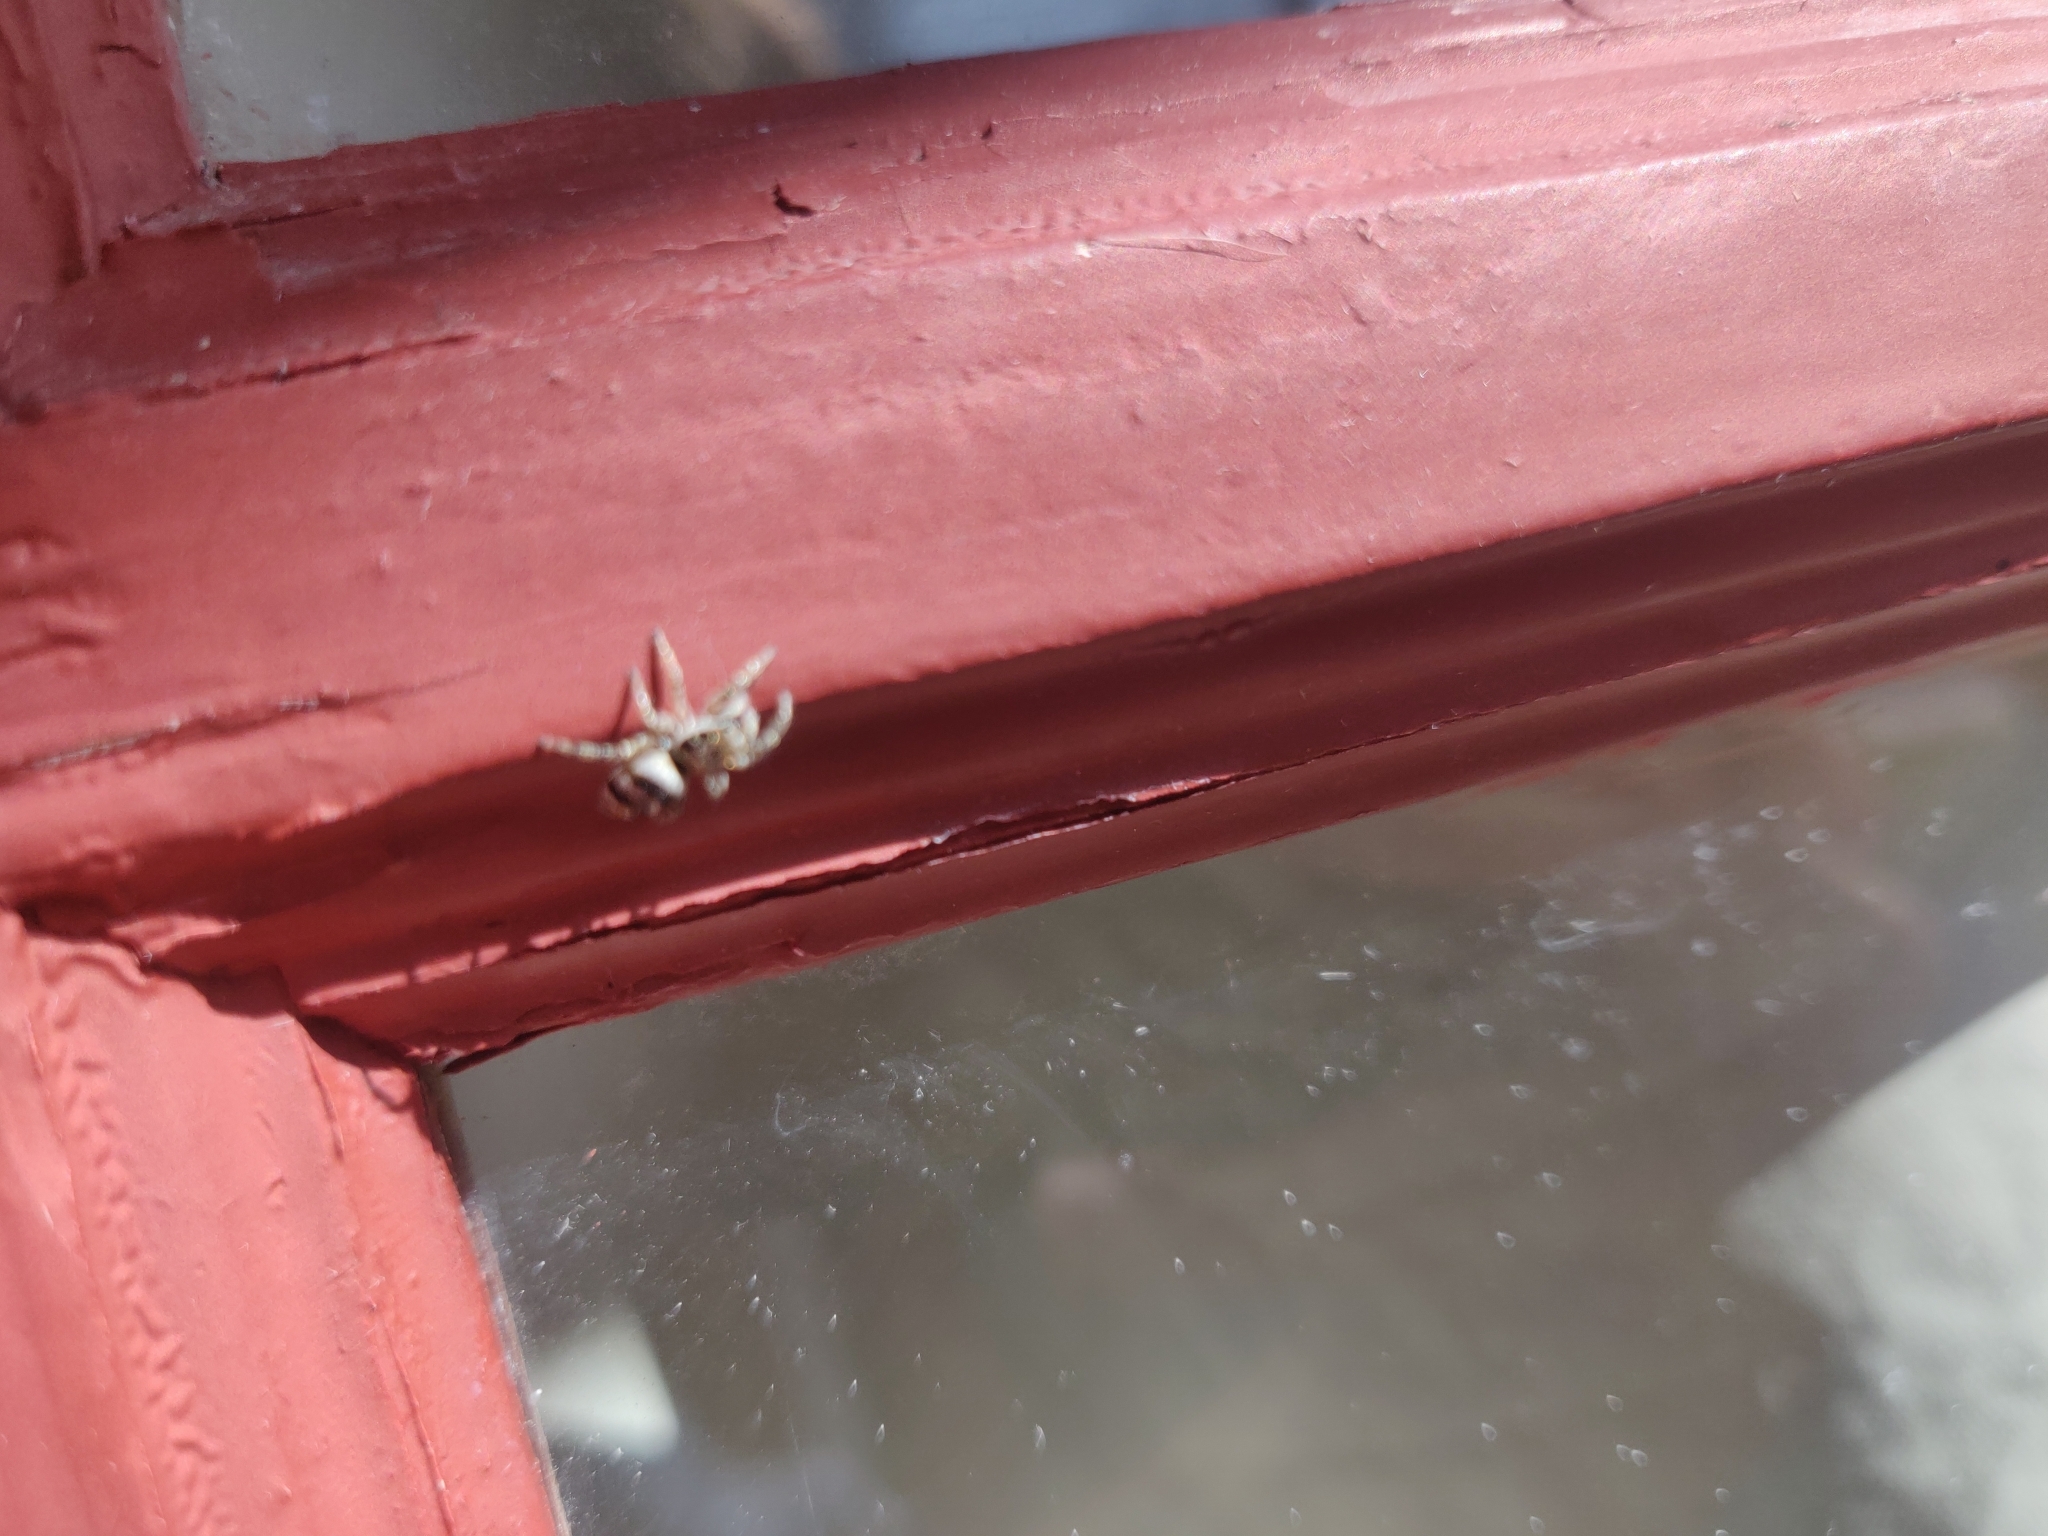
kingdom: Animalia
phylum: Arthropoda
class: Arachnida
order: Araneae
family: Salticidae
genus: Salticus
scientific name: Salticus scenicus
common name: Zebra jumper
